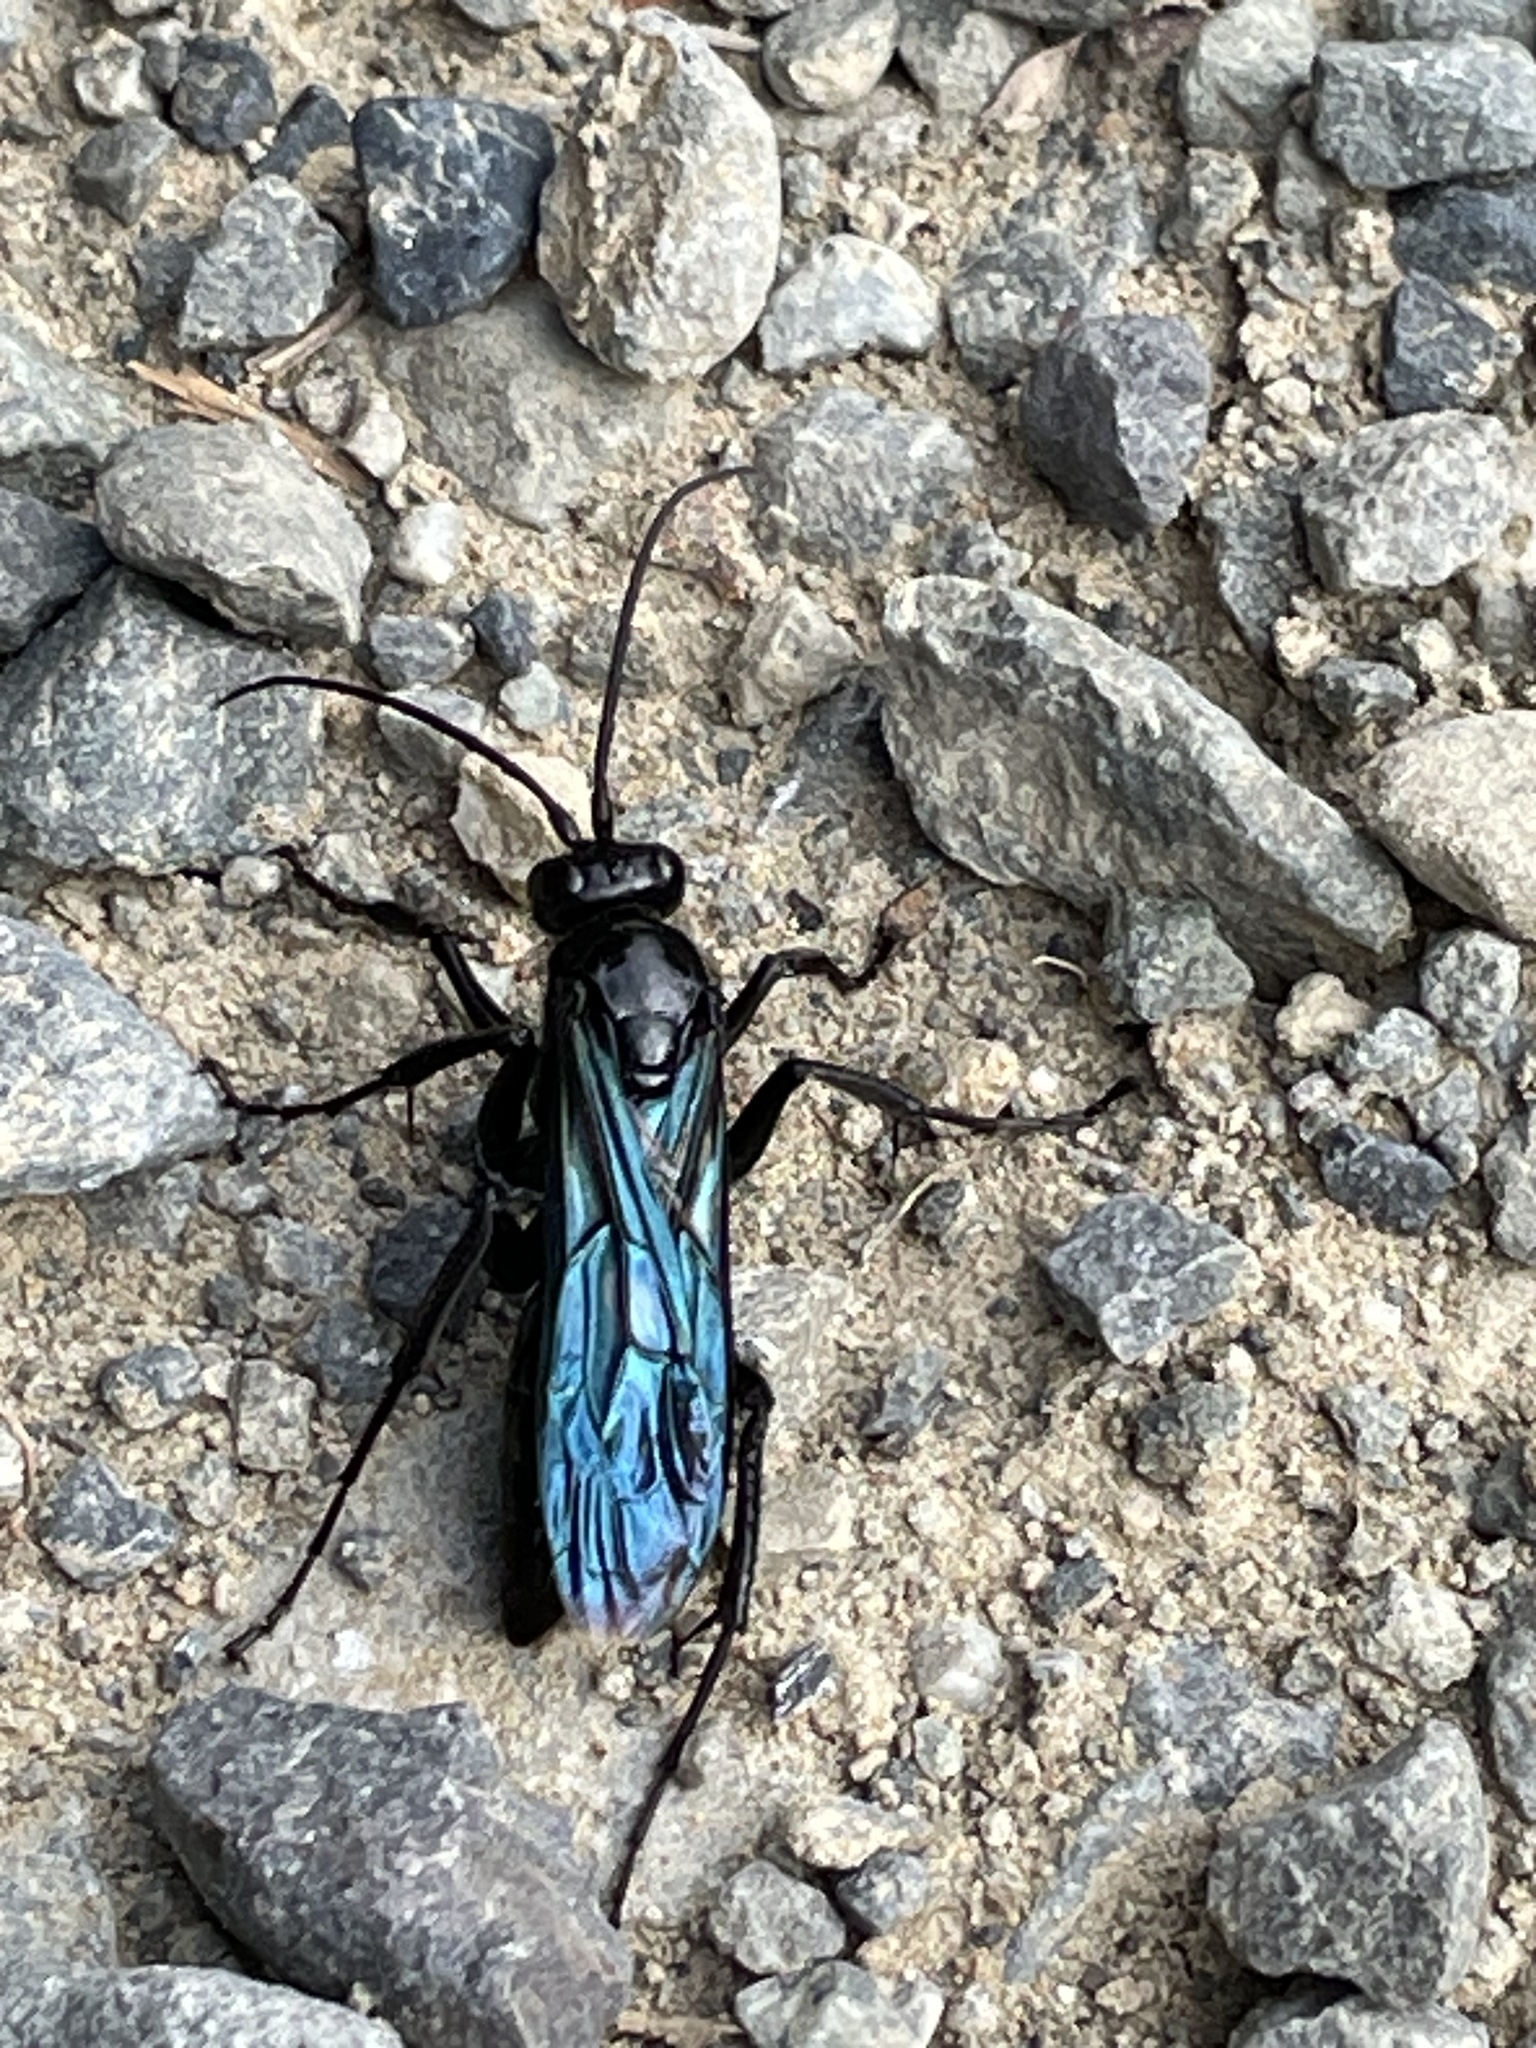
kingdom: Animalia
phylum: Arthropoda
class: Insecta
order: Hymenoptera
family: Pompilidae
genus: Priocnemis
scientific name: Priocnemis monachus
